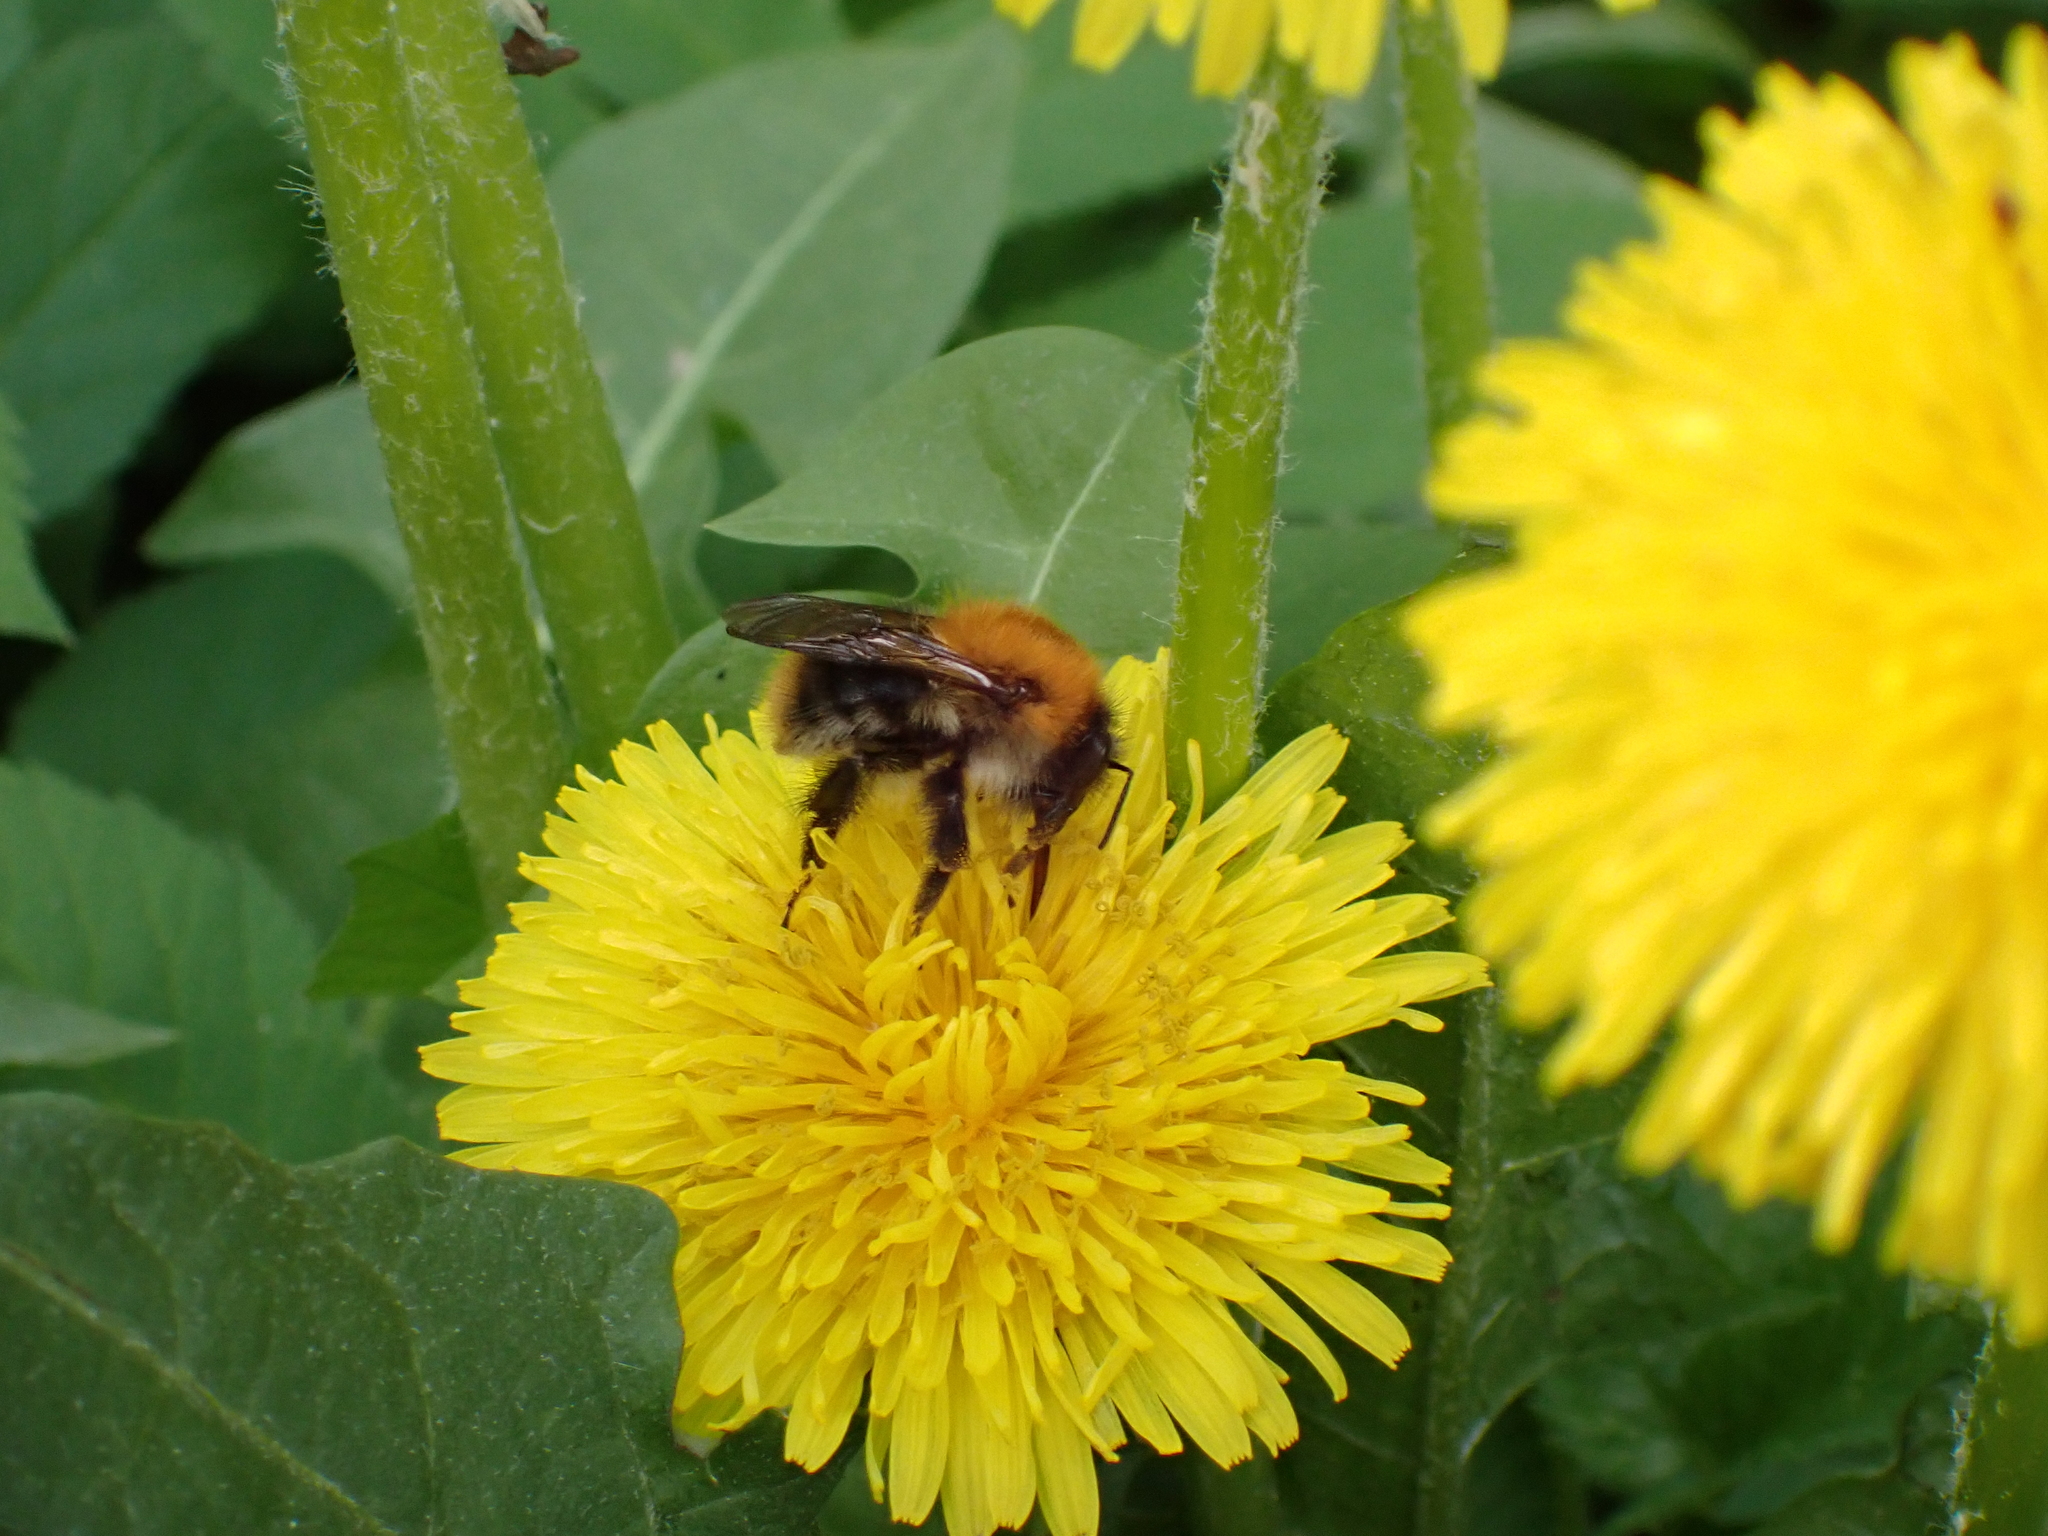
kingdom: Animalia
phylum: Arthropoda
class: Insecta
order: Hymenoptera
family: Apidae
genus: Bombus
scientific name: Bombus pascuorum
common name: Common carder bee
